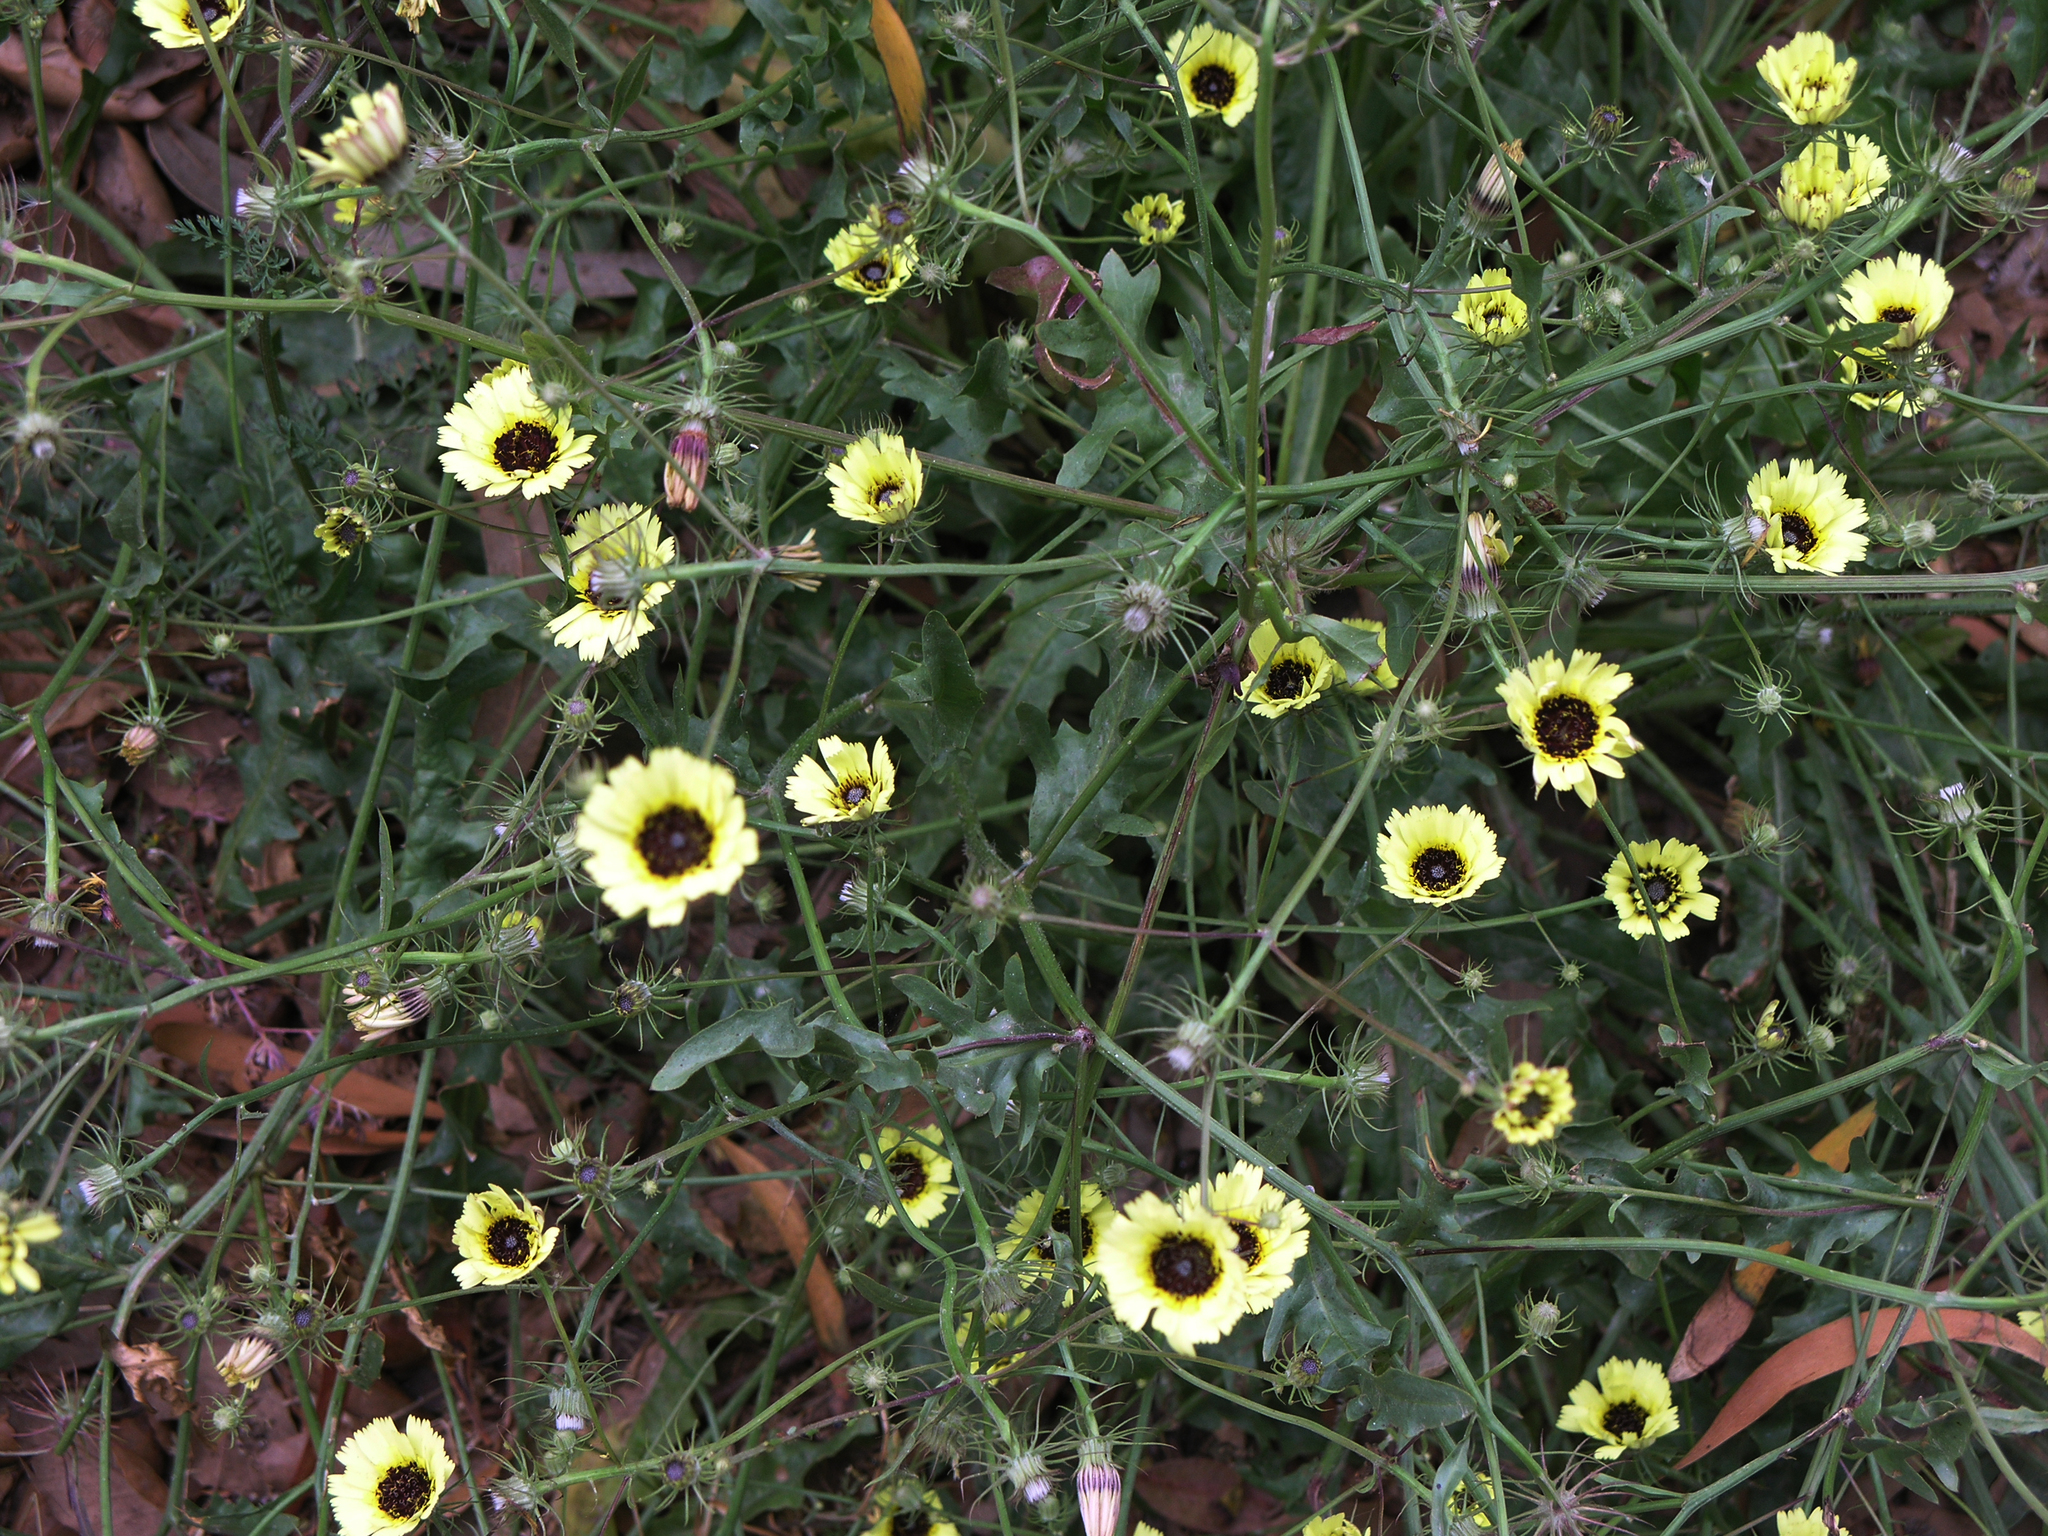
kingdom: Plantae
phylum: Tracheophyta
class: Magnoliopsida
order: Asterales
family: Asteraceae
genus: Tolpis
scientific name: Tolpis barbata
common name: Yellow hawkweed
